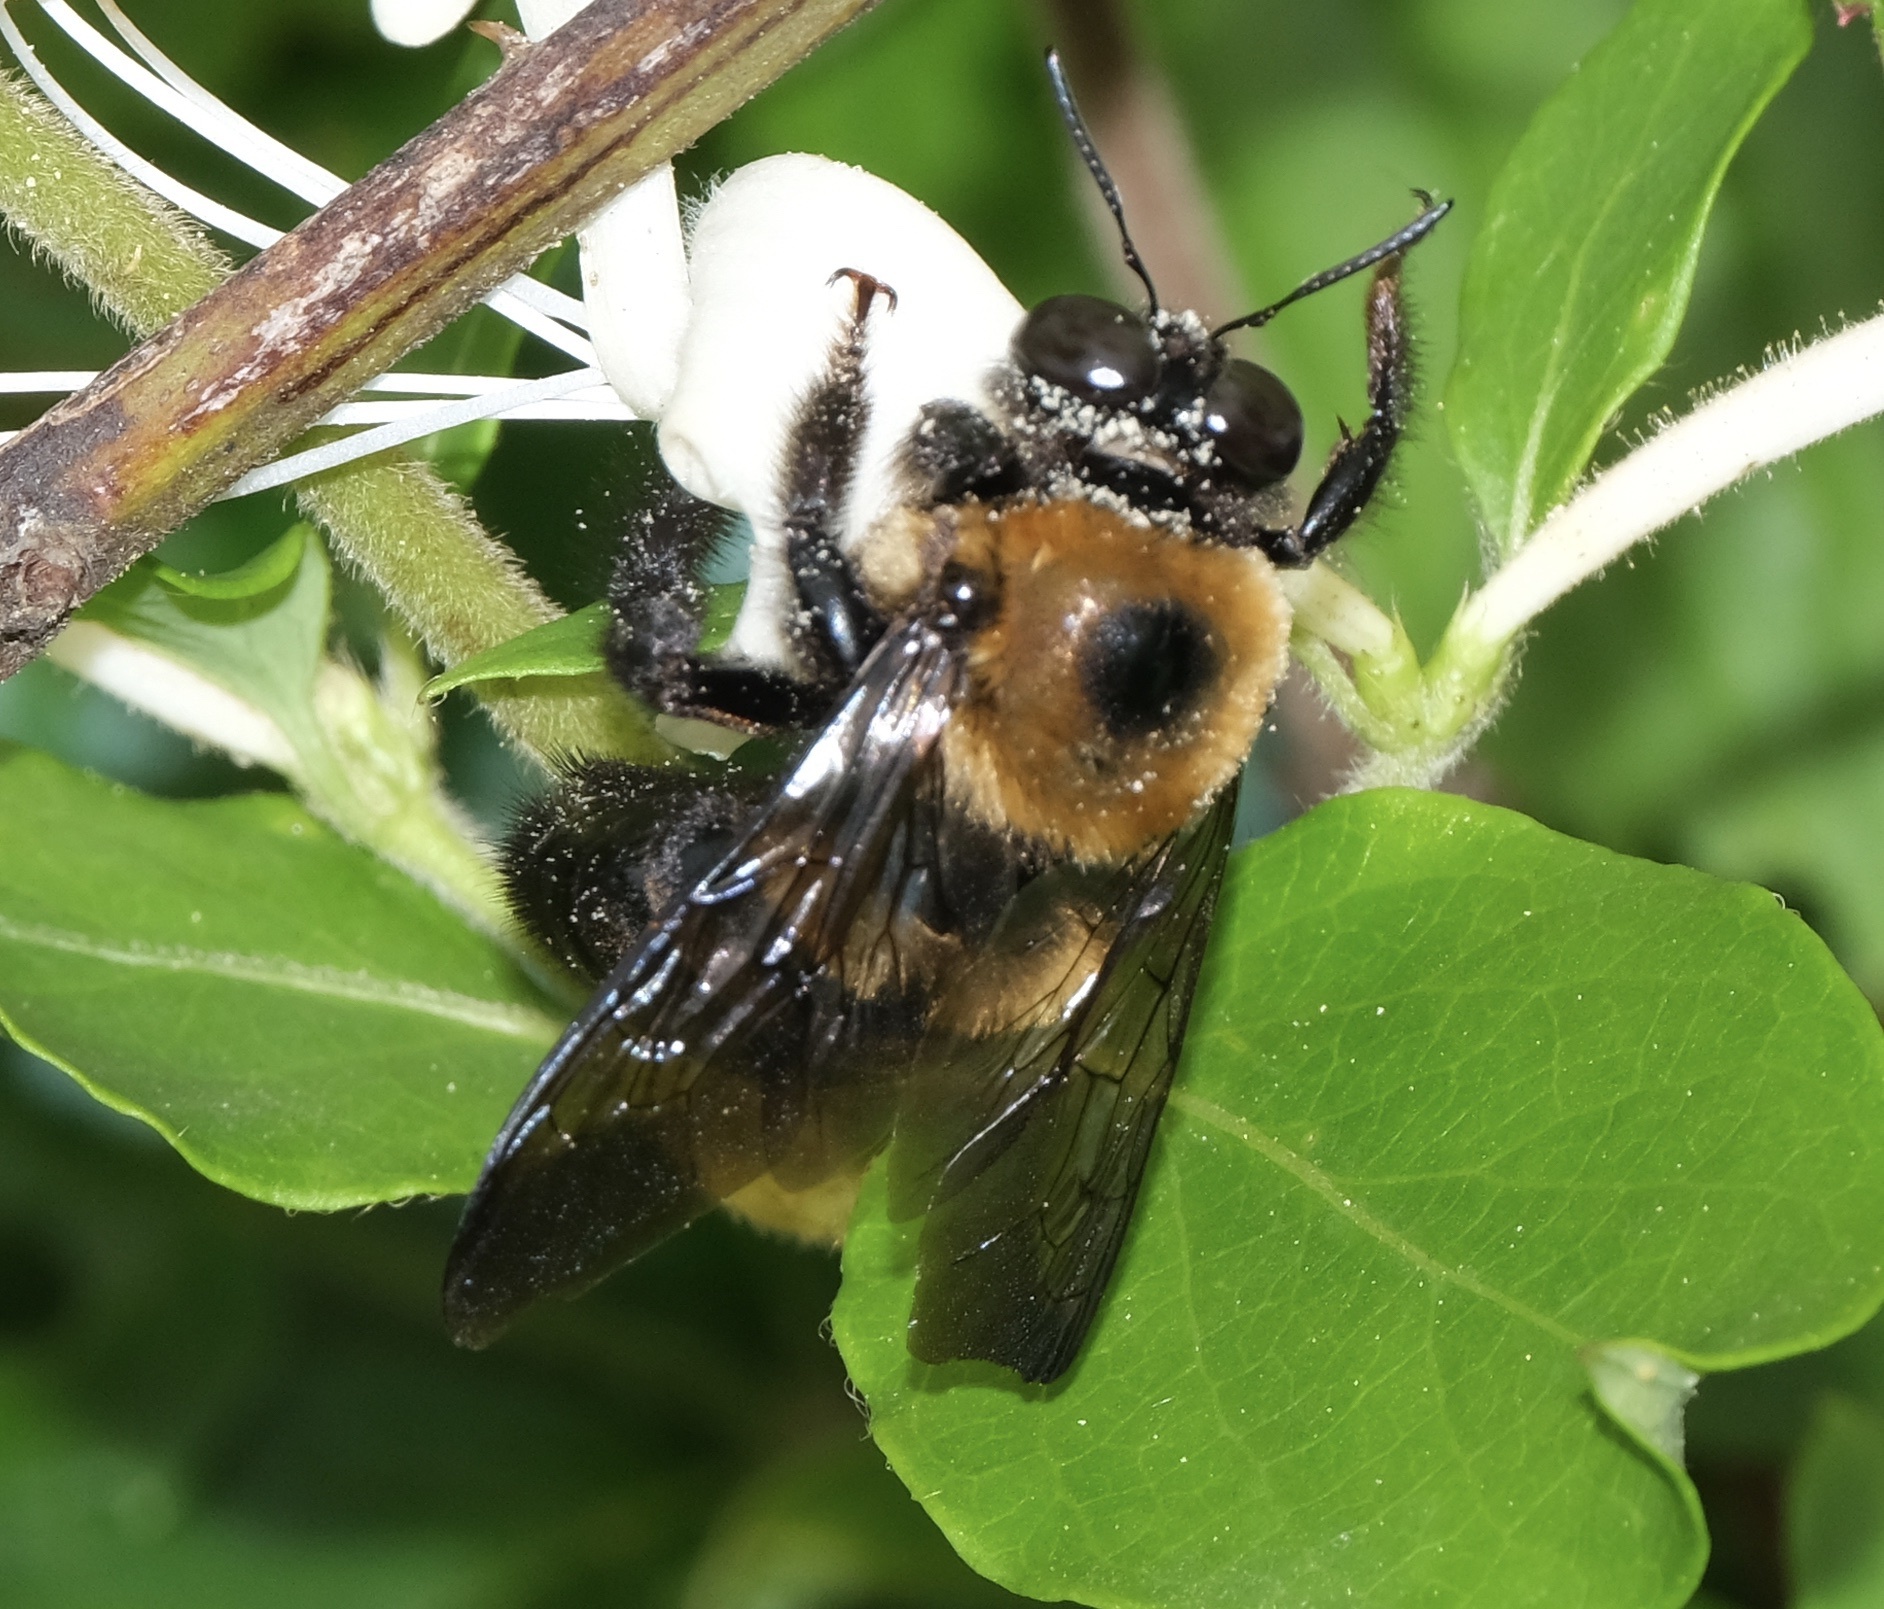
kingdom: Animalia
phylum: Arthropoda
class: Insecta
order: Hymenoptera
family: Apidae
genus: Xylocopa
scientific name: Xylocopa virginica
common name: Carpenter bee
